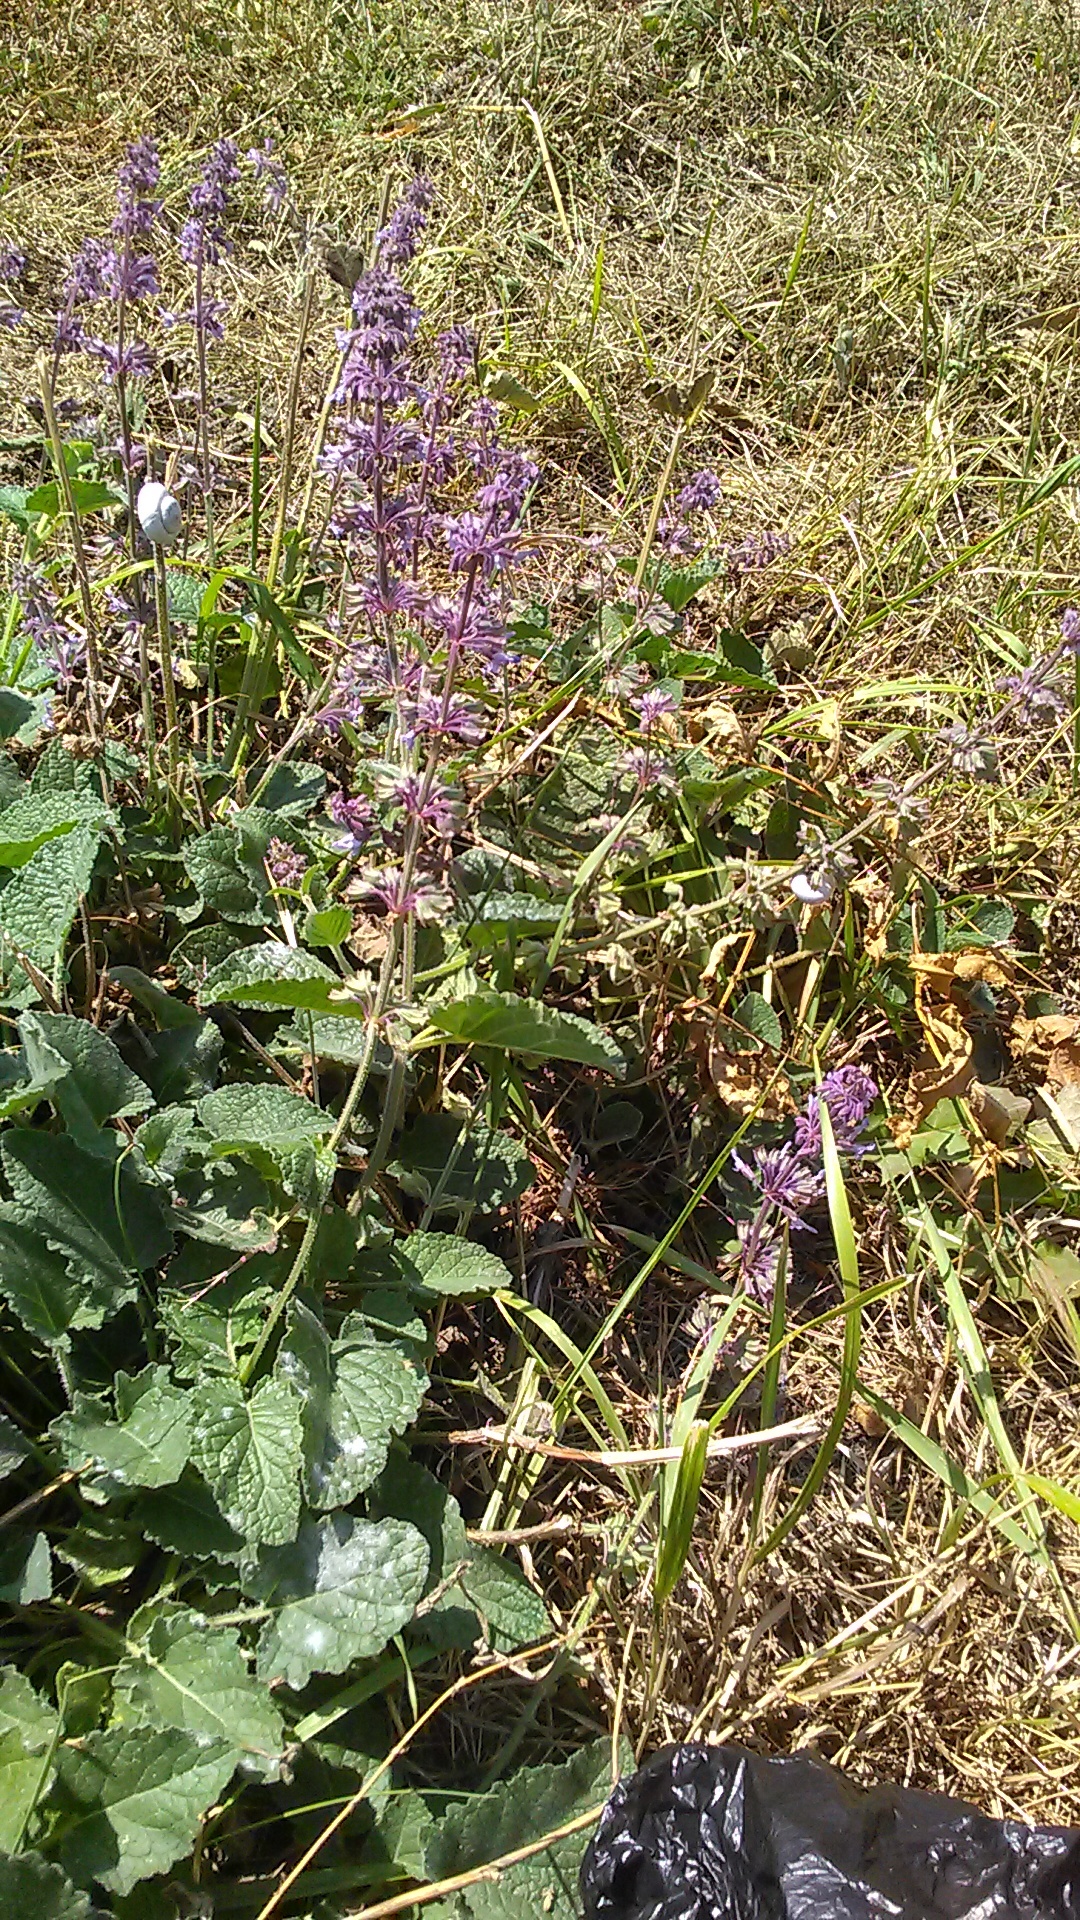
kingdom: Plantae
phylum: Tracheophyta
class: Magnoliopsida
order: Lamiales
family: Lamiaceae
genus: Salvia
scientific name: Salvia verticillata
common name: Whorled clary
